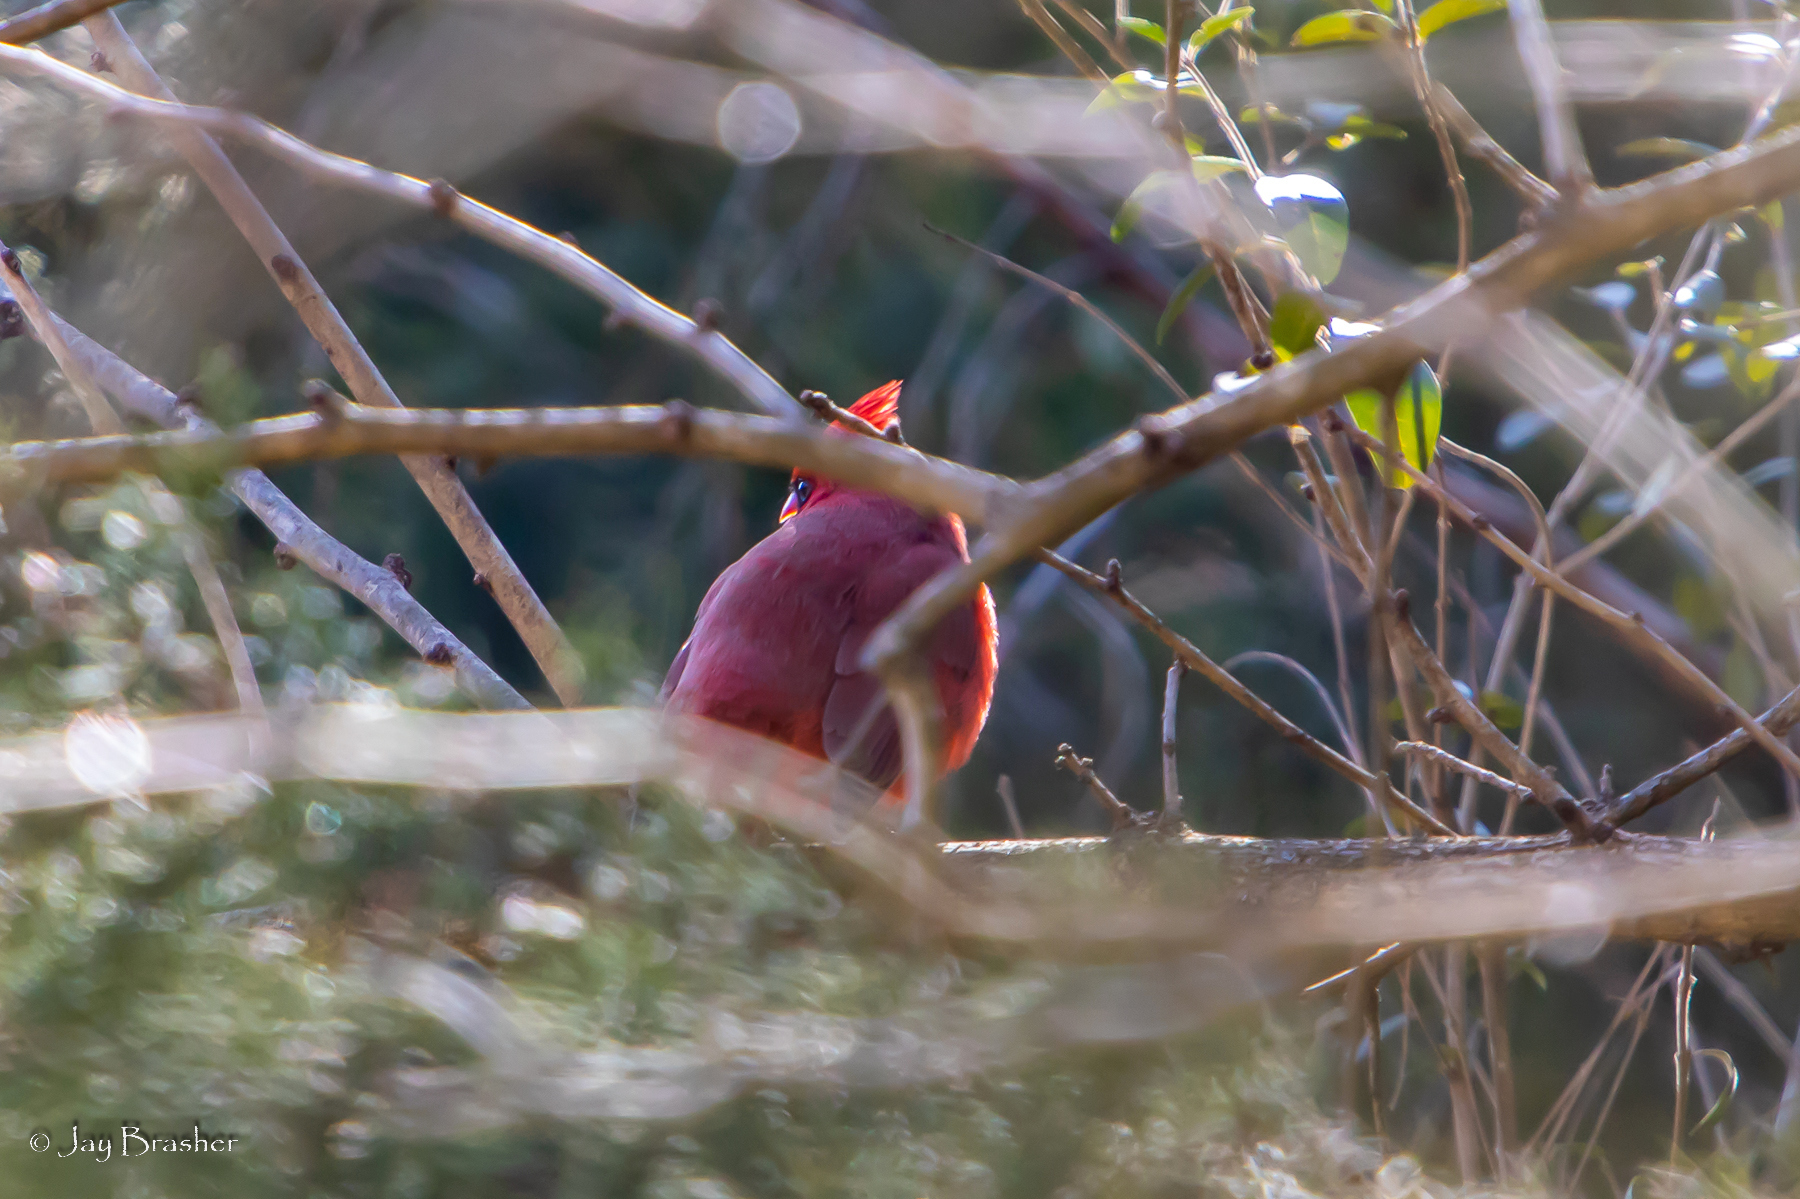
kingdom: Animalia
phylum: Chordata
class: Aves
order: Passeriformes
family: Cardinalidae
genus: Cardinalis
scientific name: Cardinalis cardinalis
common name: Northern cardinal
